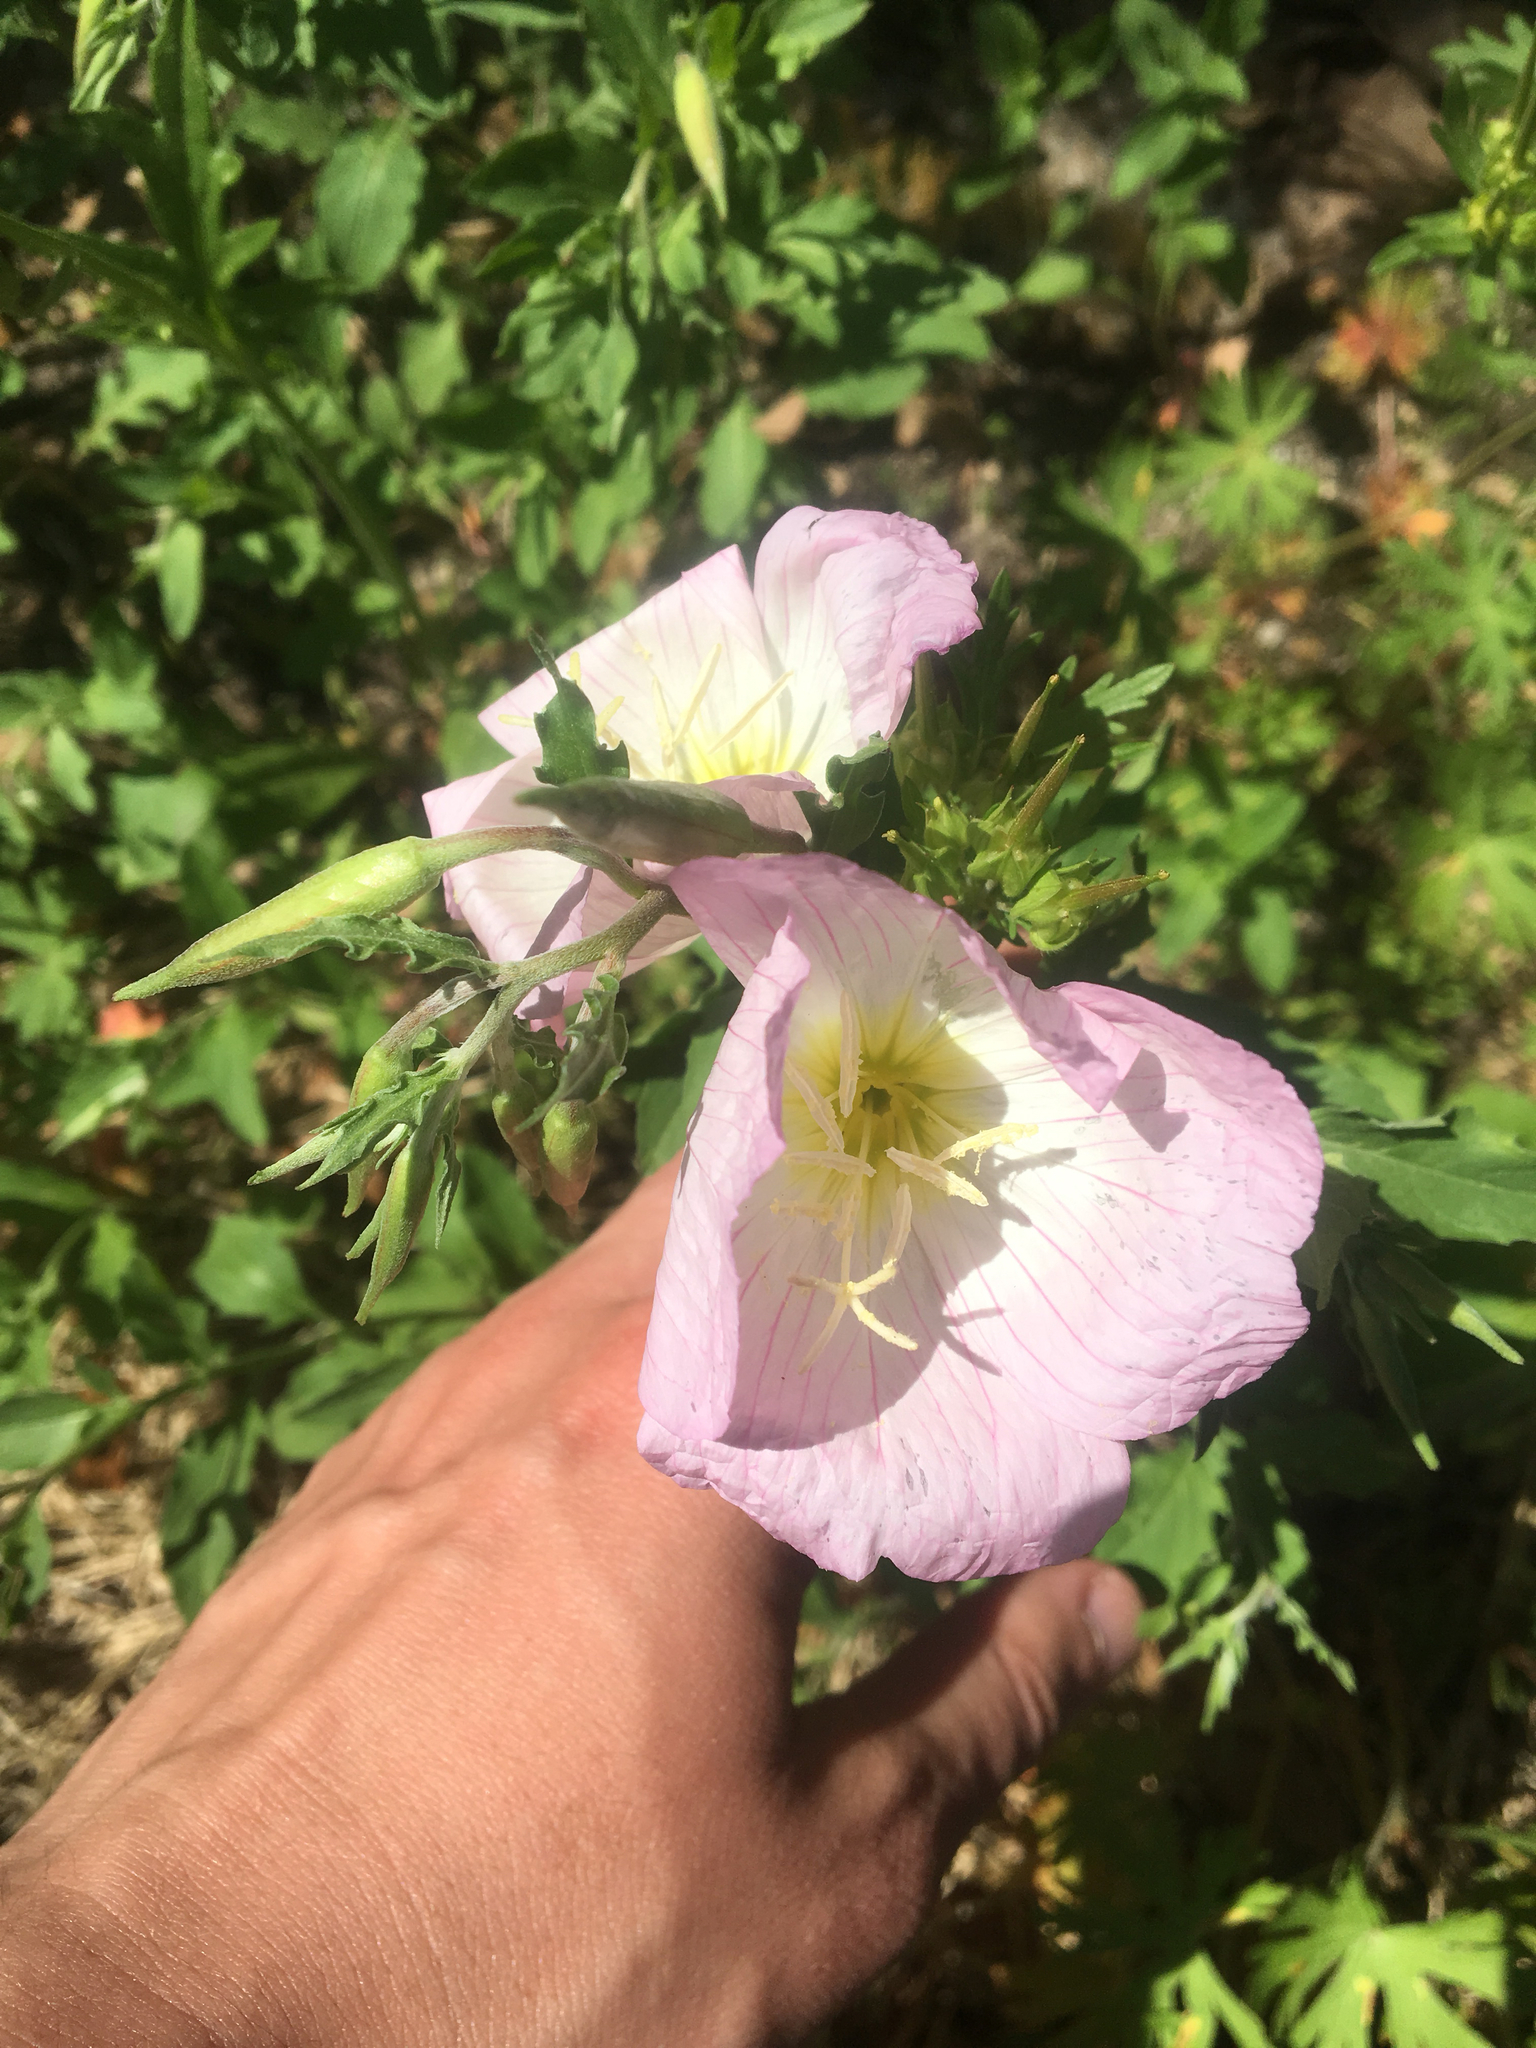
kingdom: Plantae
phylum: Tracheophyta
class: Magnoliopsida
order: Myrtales
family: Onagraceae
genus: Oenothera
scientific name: Oenothera speciosa
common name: White evening-primrose
